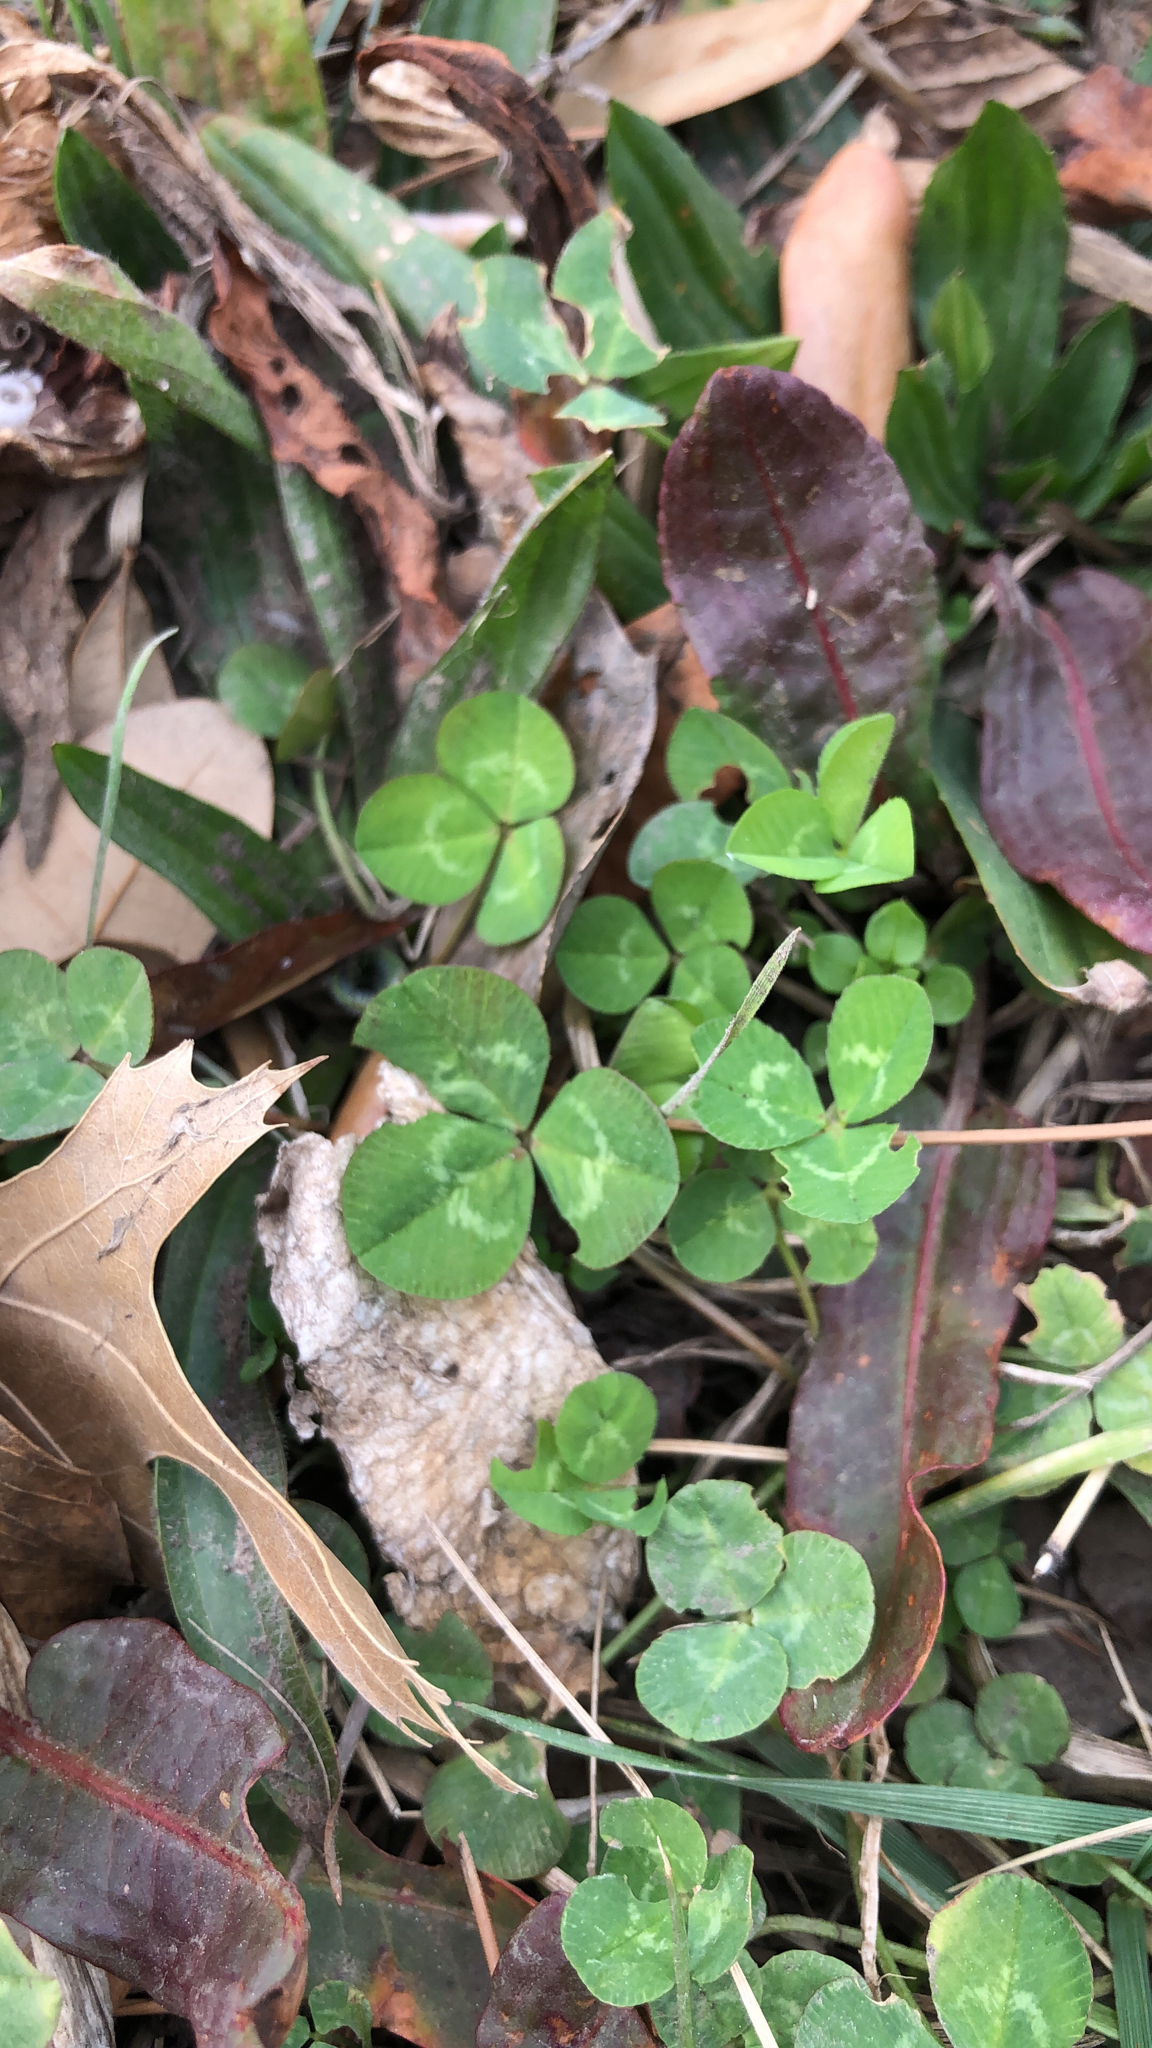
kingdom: Plantae
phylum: Tracheophyta
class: Magnoliopsida
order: Fabales
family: Fabaceae
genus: Trifolium
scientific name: Trifolium repens
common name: White clover
